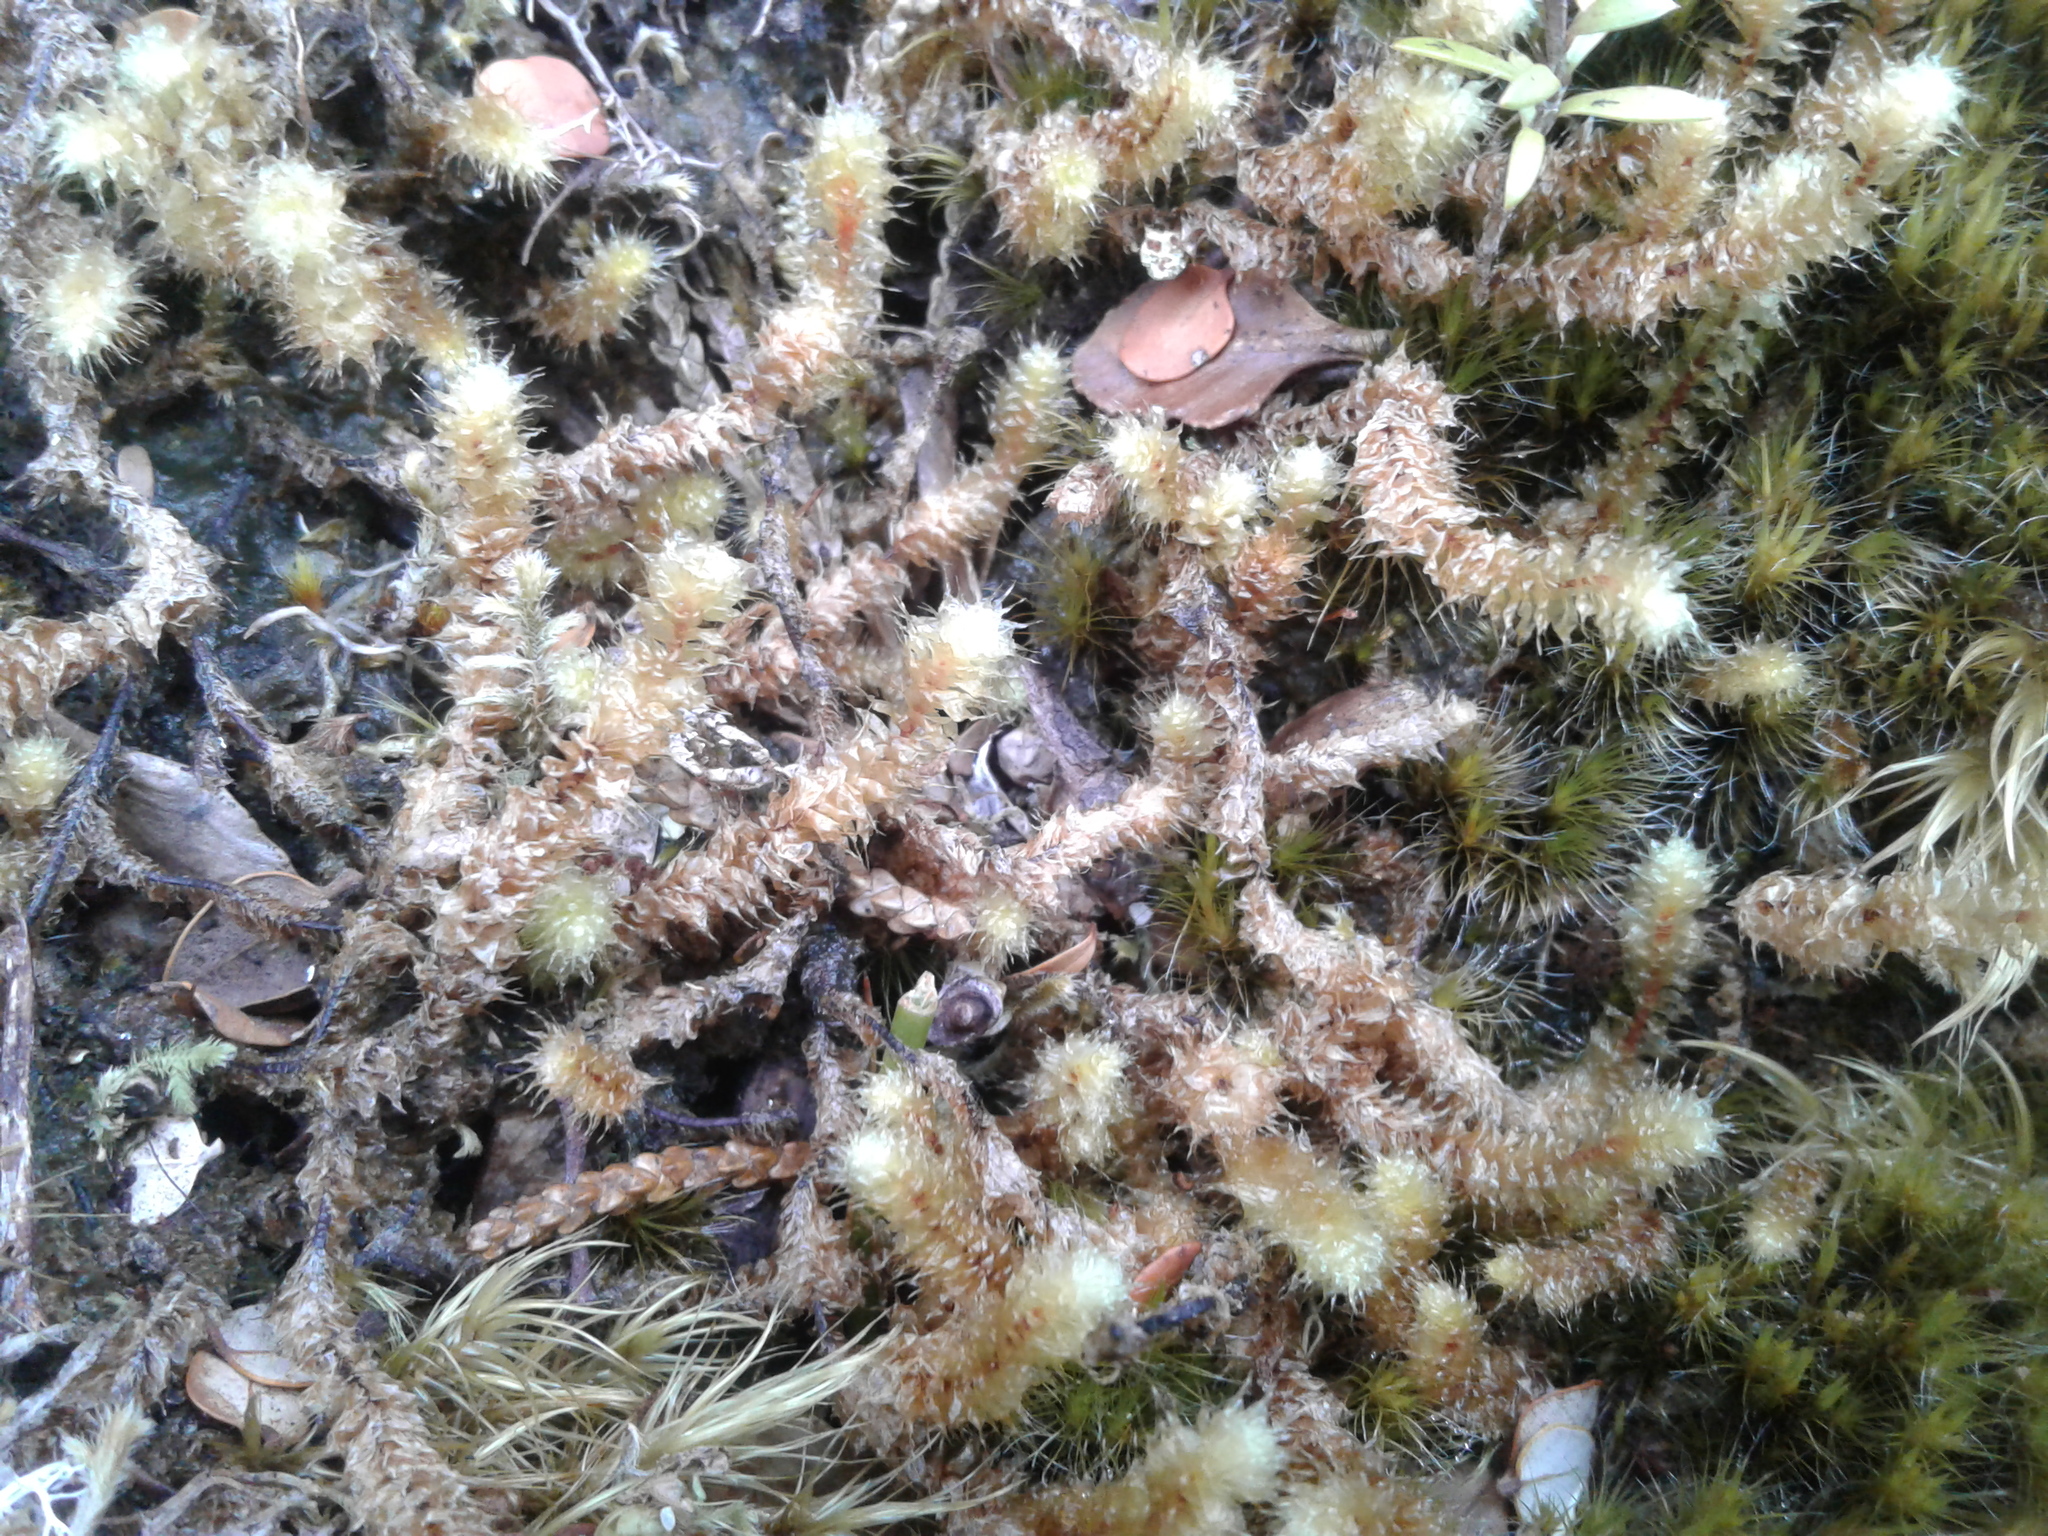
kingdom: Plantae
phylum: Bryophyta
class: Bryopsida
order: Ptychomniales
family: Ptychomniaceae
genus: Ptychomnion
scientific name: Ptychomnion aciculare
